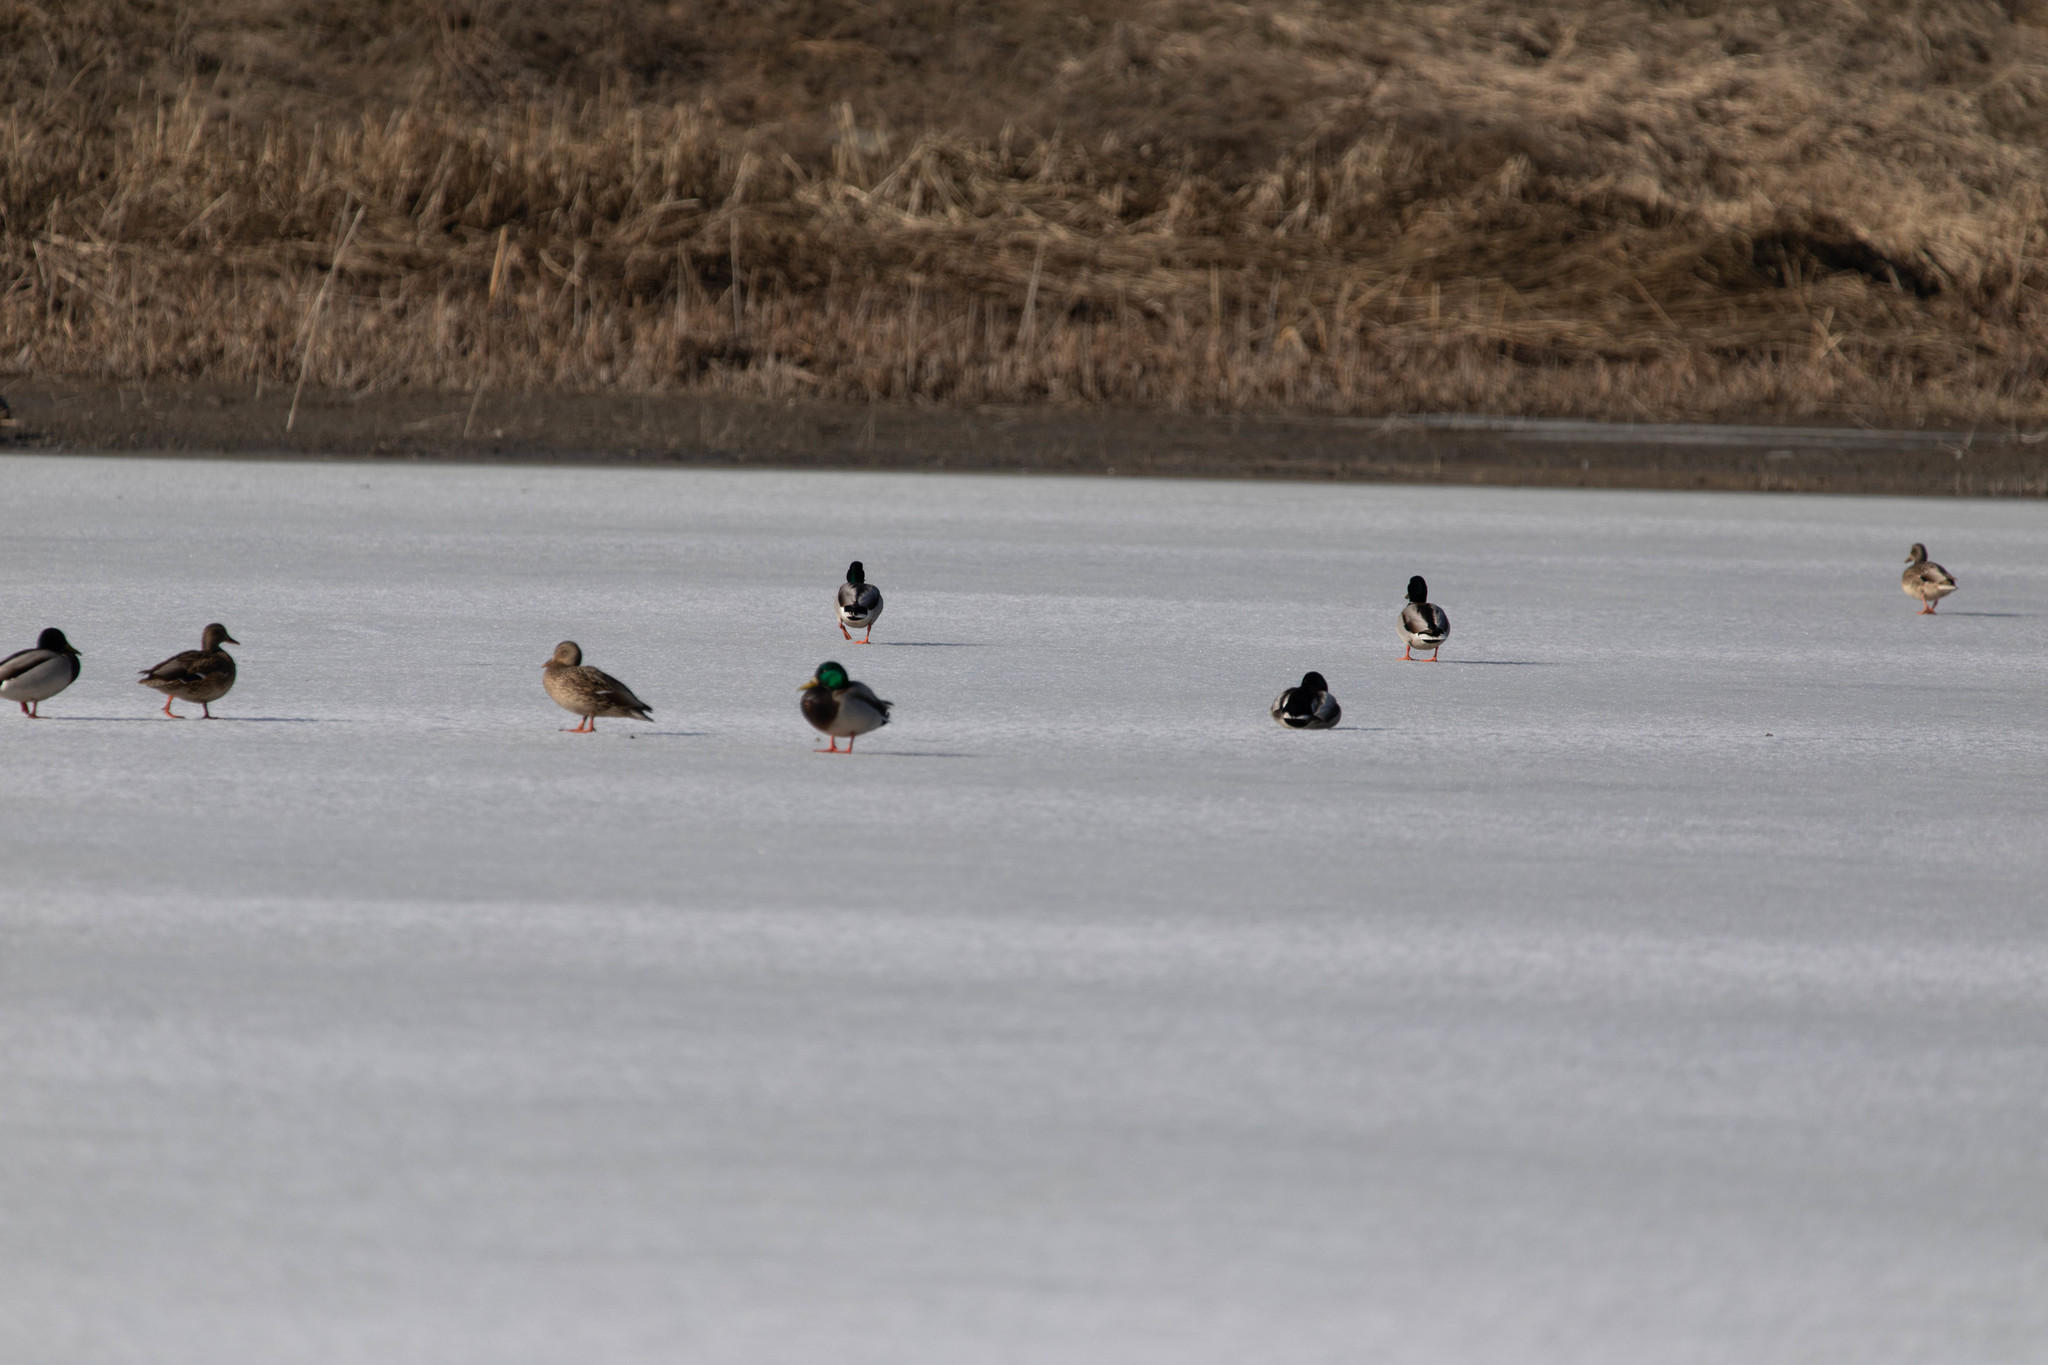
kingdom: Animalia
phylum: Chordata
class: Aves
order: Anseriformes
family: Anatidae
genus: Anas
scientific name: Anas platyrhynchos
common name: Mallard
